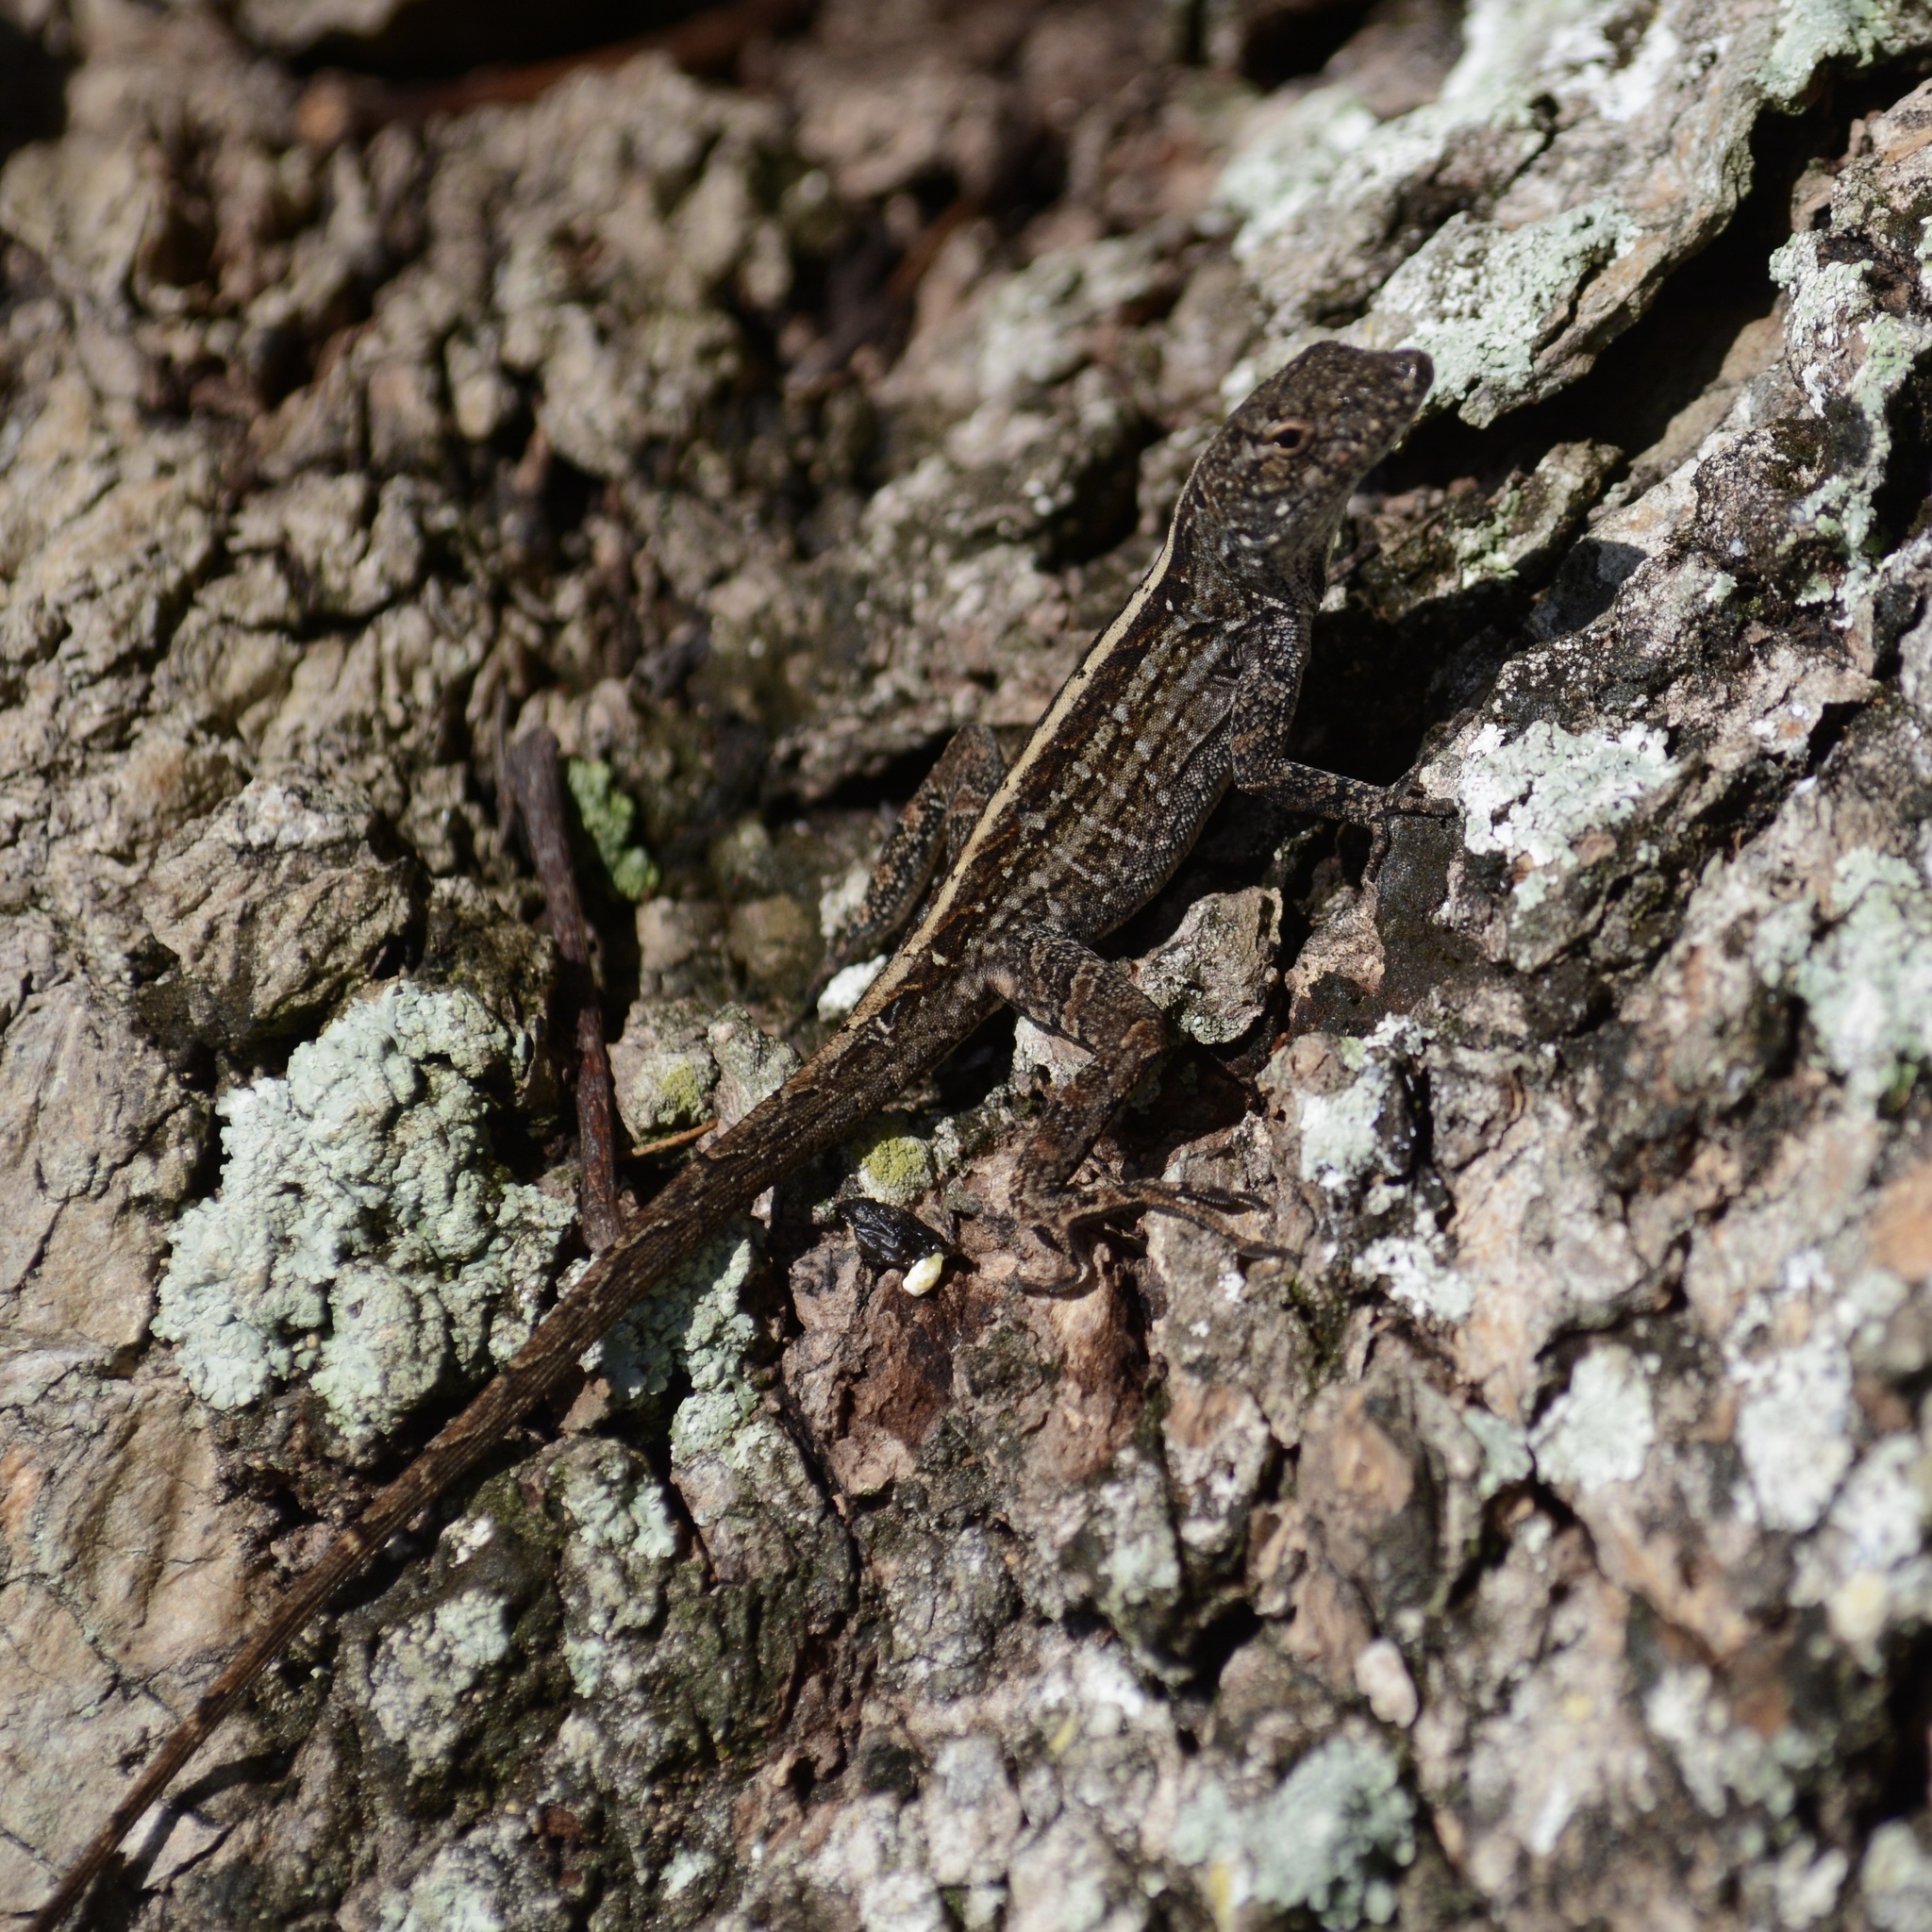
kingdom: Animalia
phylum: Chordata
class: Squamata
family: Dactyloidae
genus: Anolis
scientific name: Anolis sagrei
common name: Brown anole
